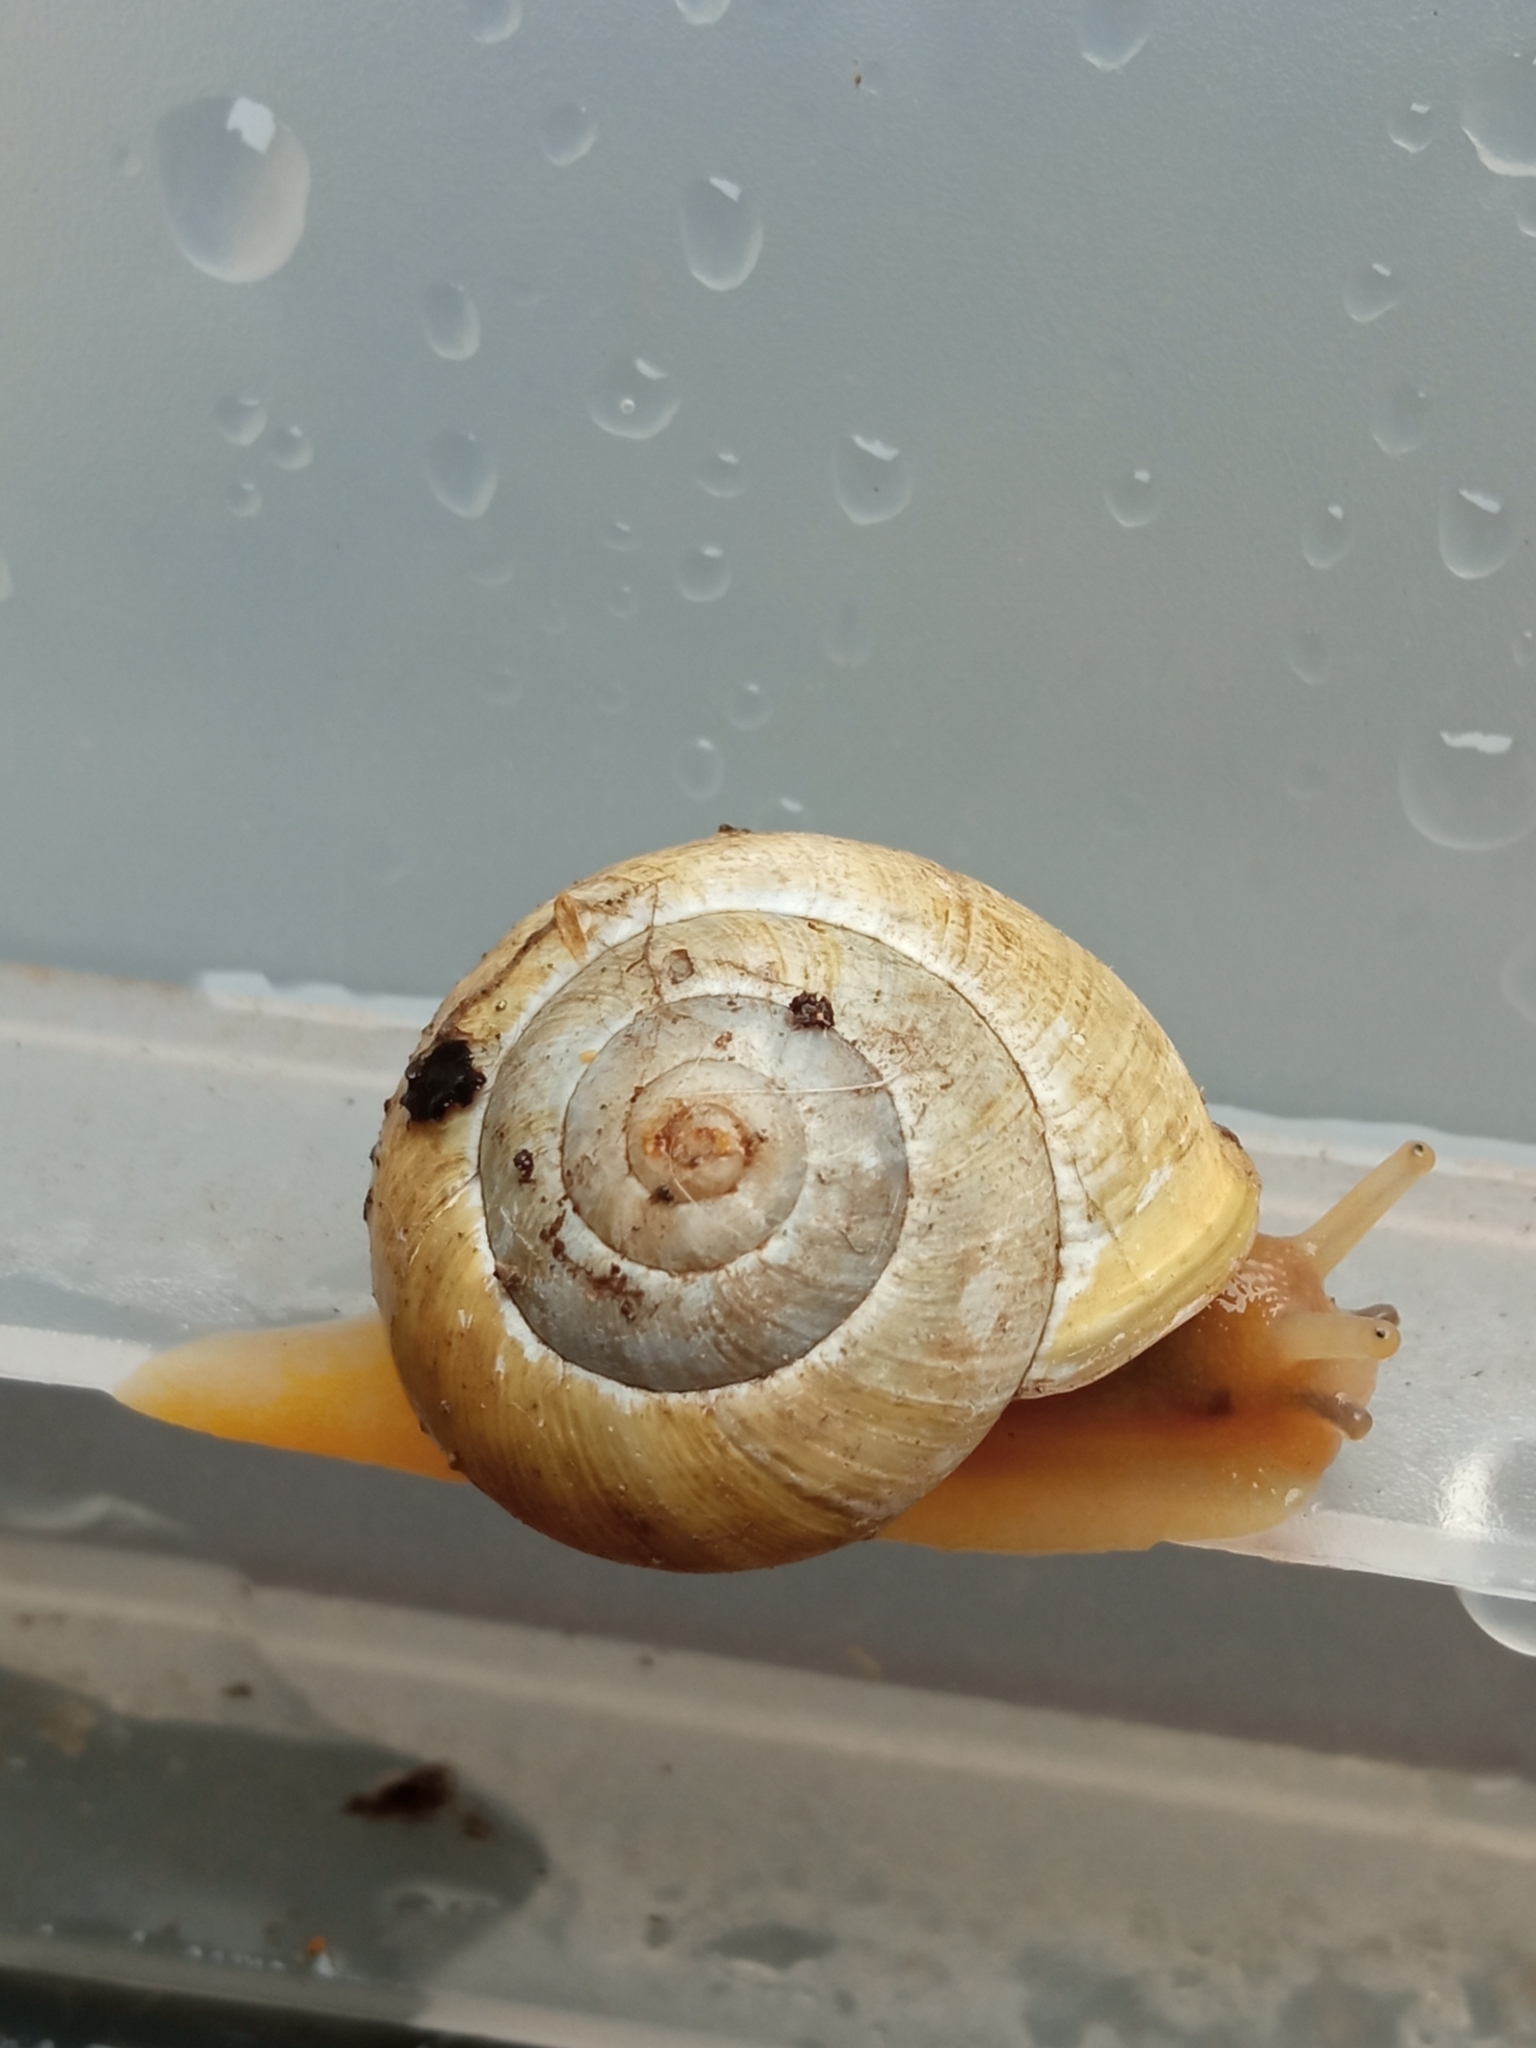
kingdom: Animalia
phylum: Mollusca
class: Gastropoda
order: Stylommatophora
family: Helicidae
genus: Cepaea
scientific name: Cepaea hortensis
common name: White-lip gardensnail
